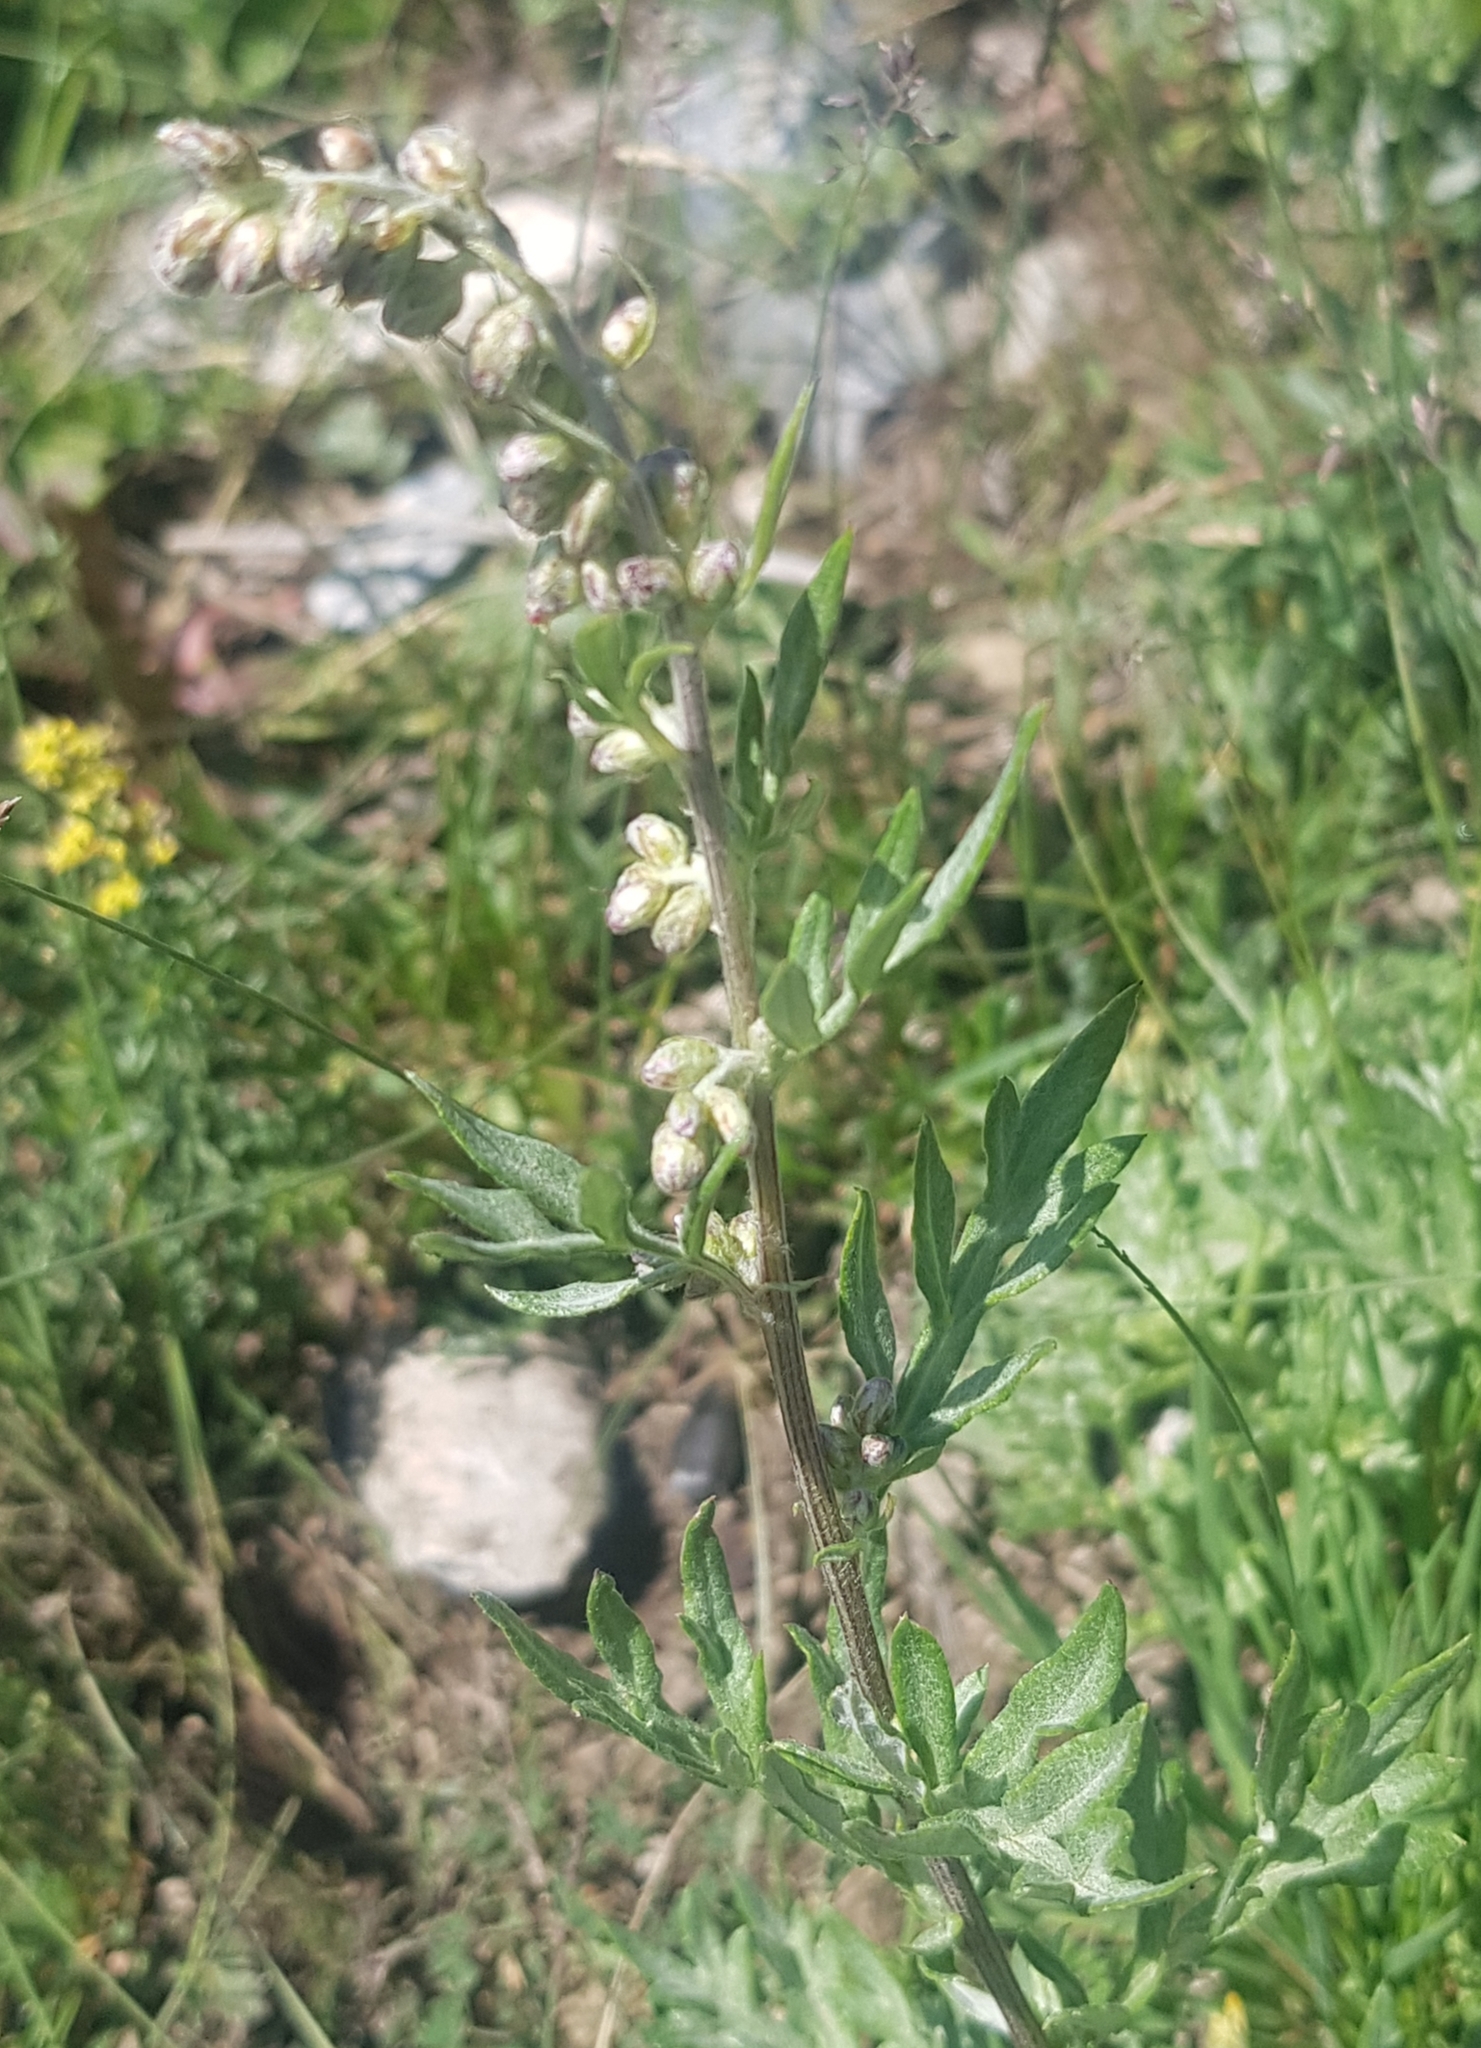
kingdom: Plantae
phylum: Tracheophyta
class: Magnoliopsida
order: Asterales
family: Asteraceae
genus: Artemisia
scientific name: Artemisia vulgaris
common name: Mugwort
